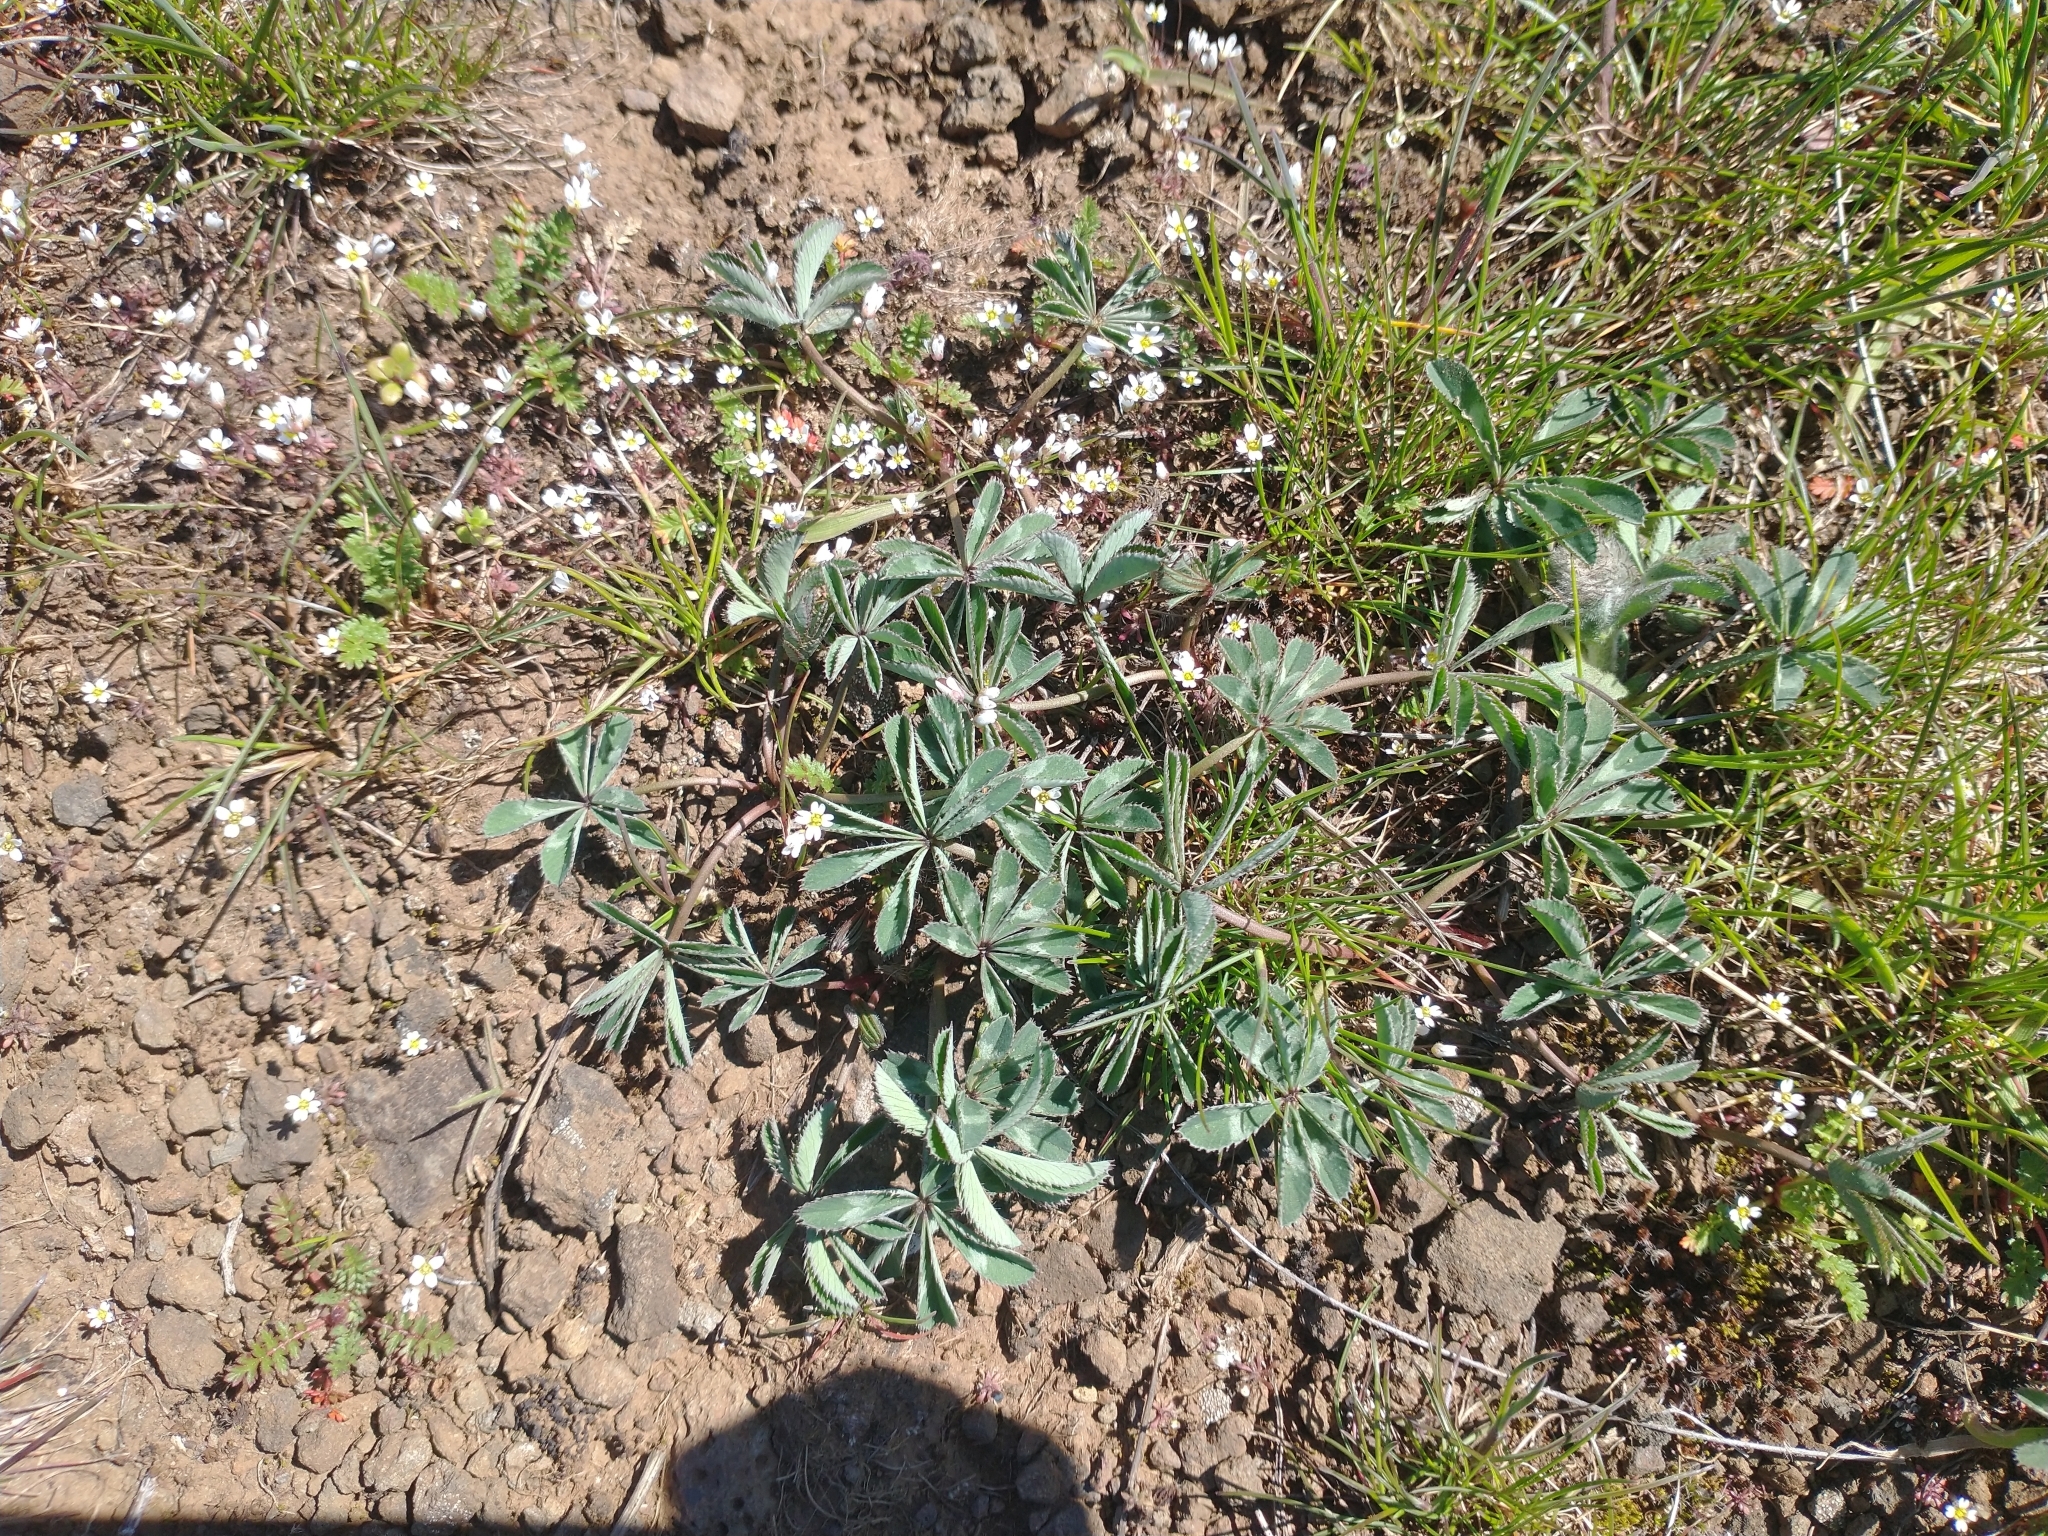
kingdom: Plantae
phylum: Tracheophyta
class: Magnoliopsida
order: Fabales
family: Fabaceae
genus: Trifolium
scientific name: Trifolium macrocephalum
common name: Large-head clover
